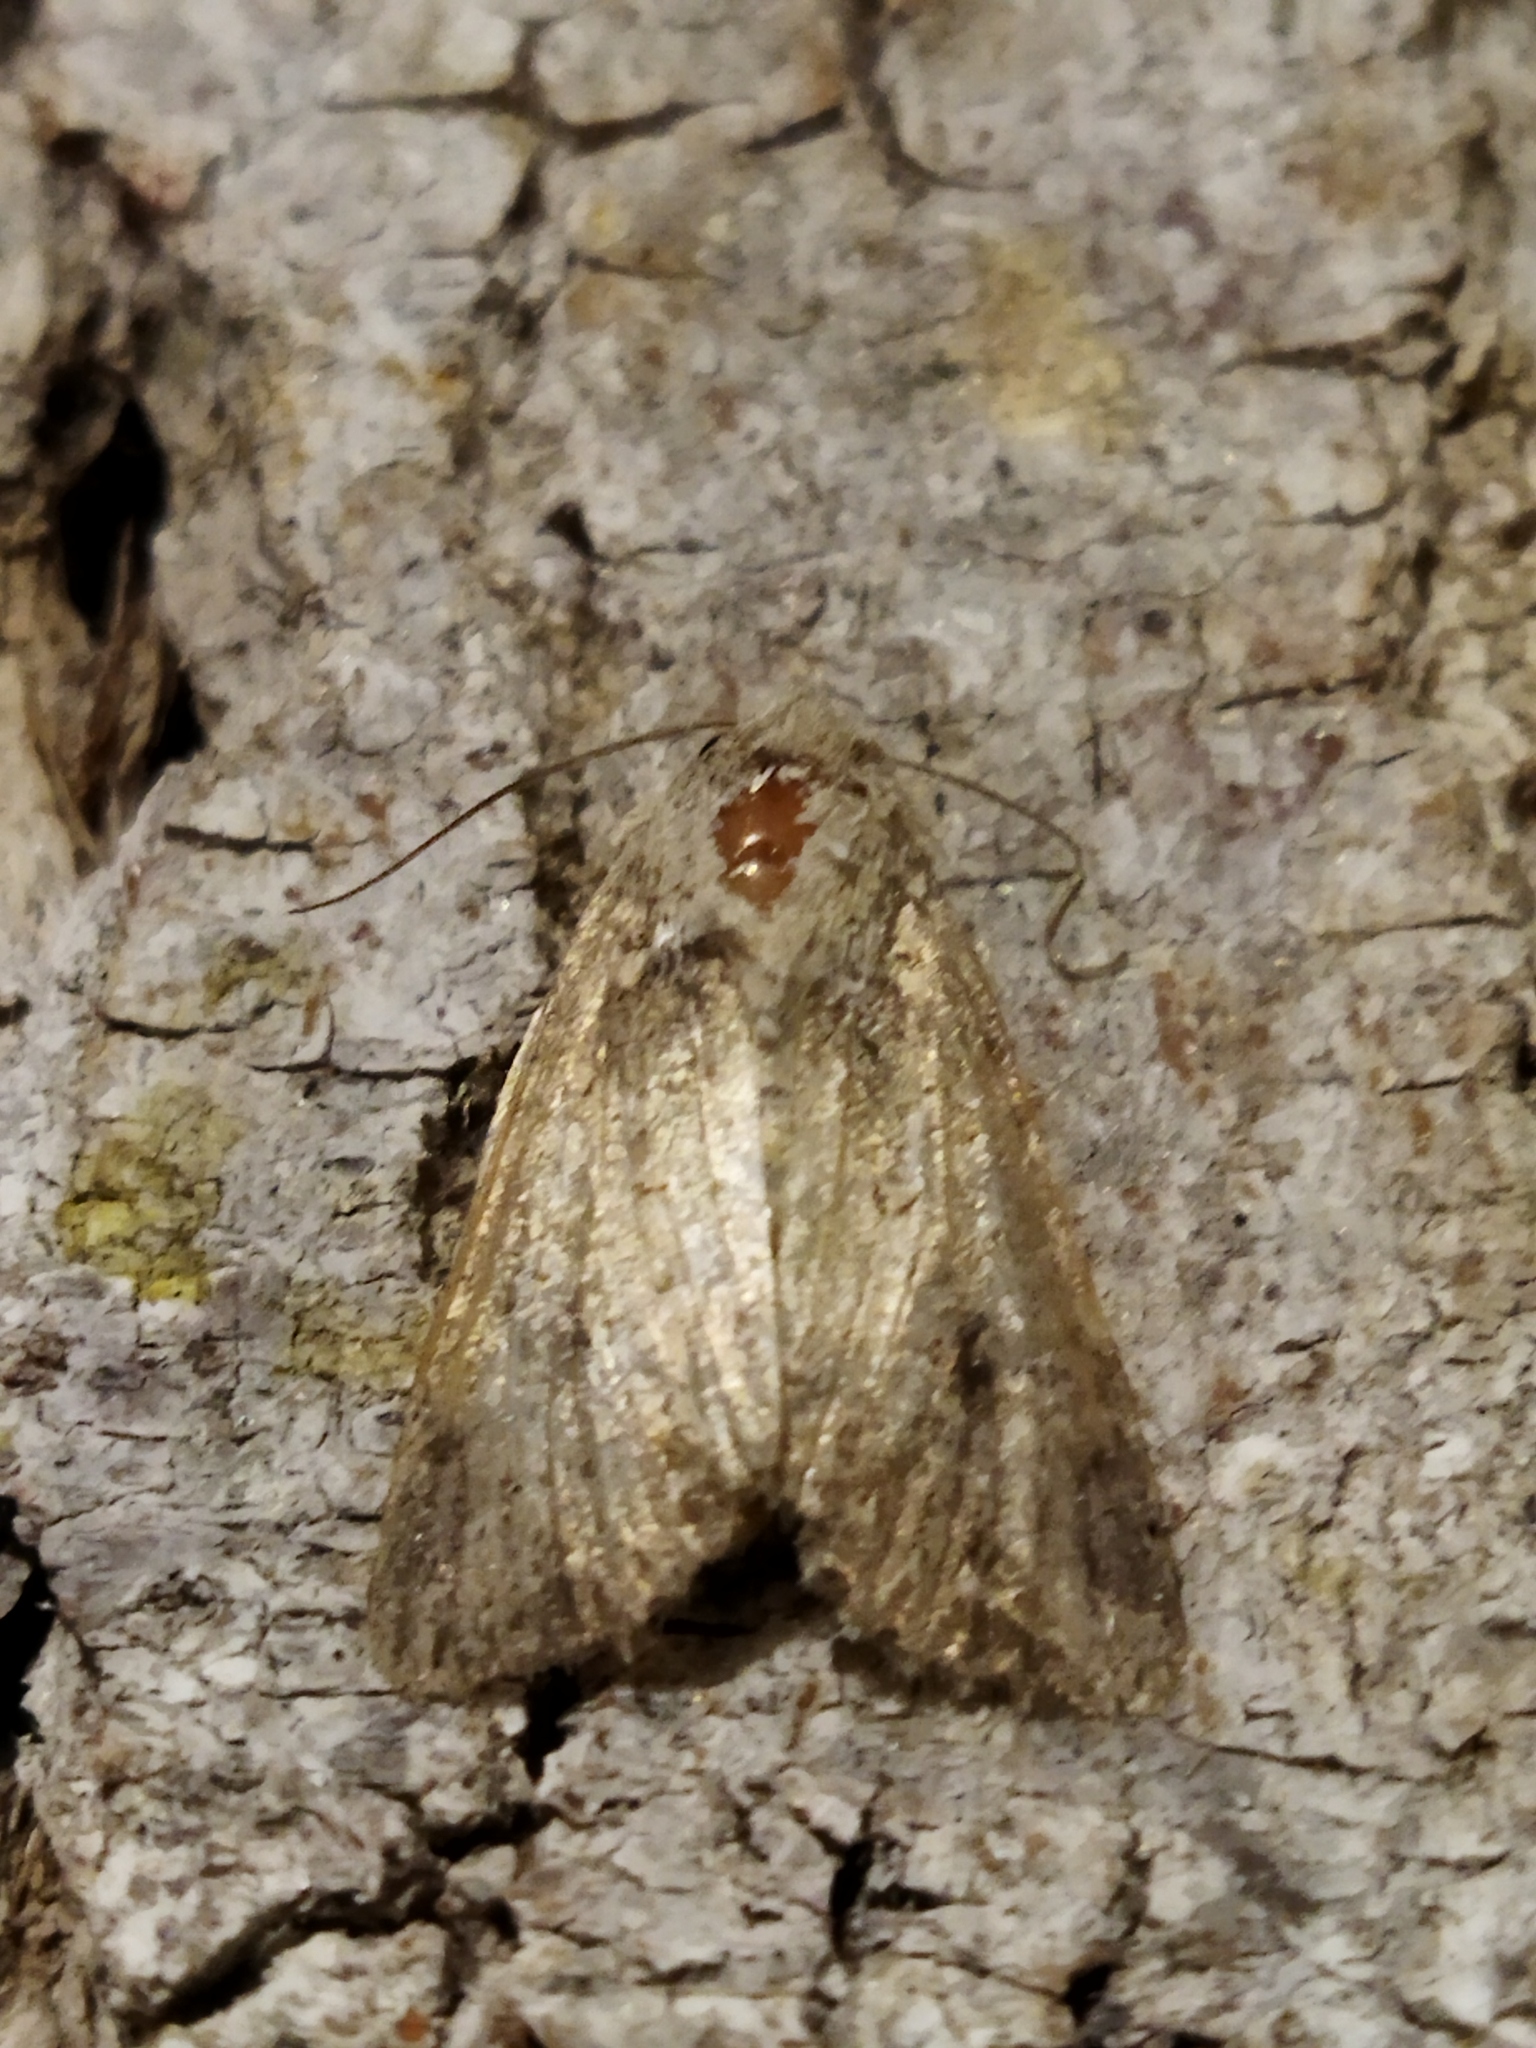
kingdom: Animalia
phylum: Arthropoda
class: Insecta
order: Lepidoptera
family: Noctuidae
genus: Anarta
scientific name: Anarta trifolii
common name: Clover cutworm moth
